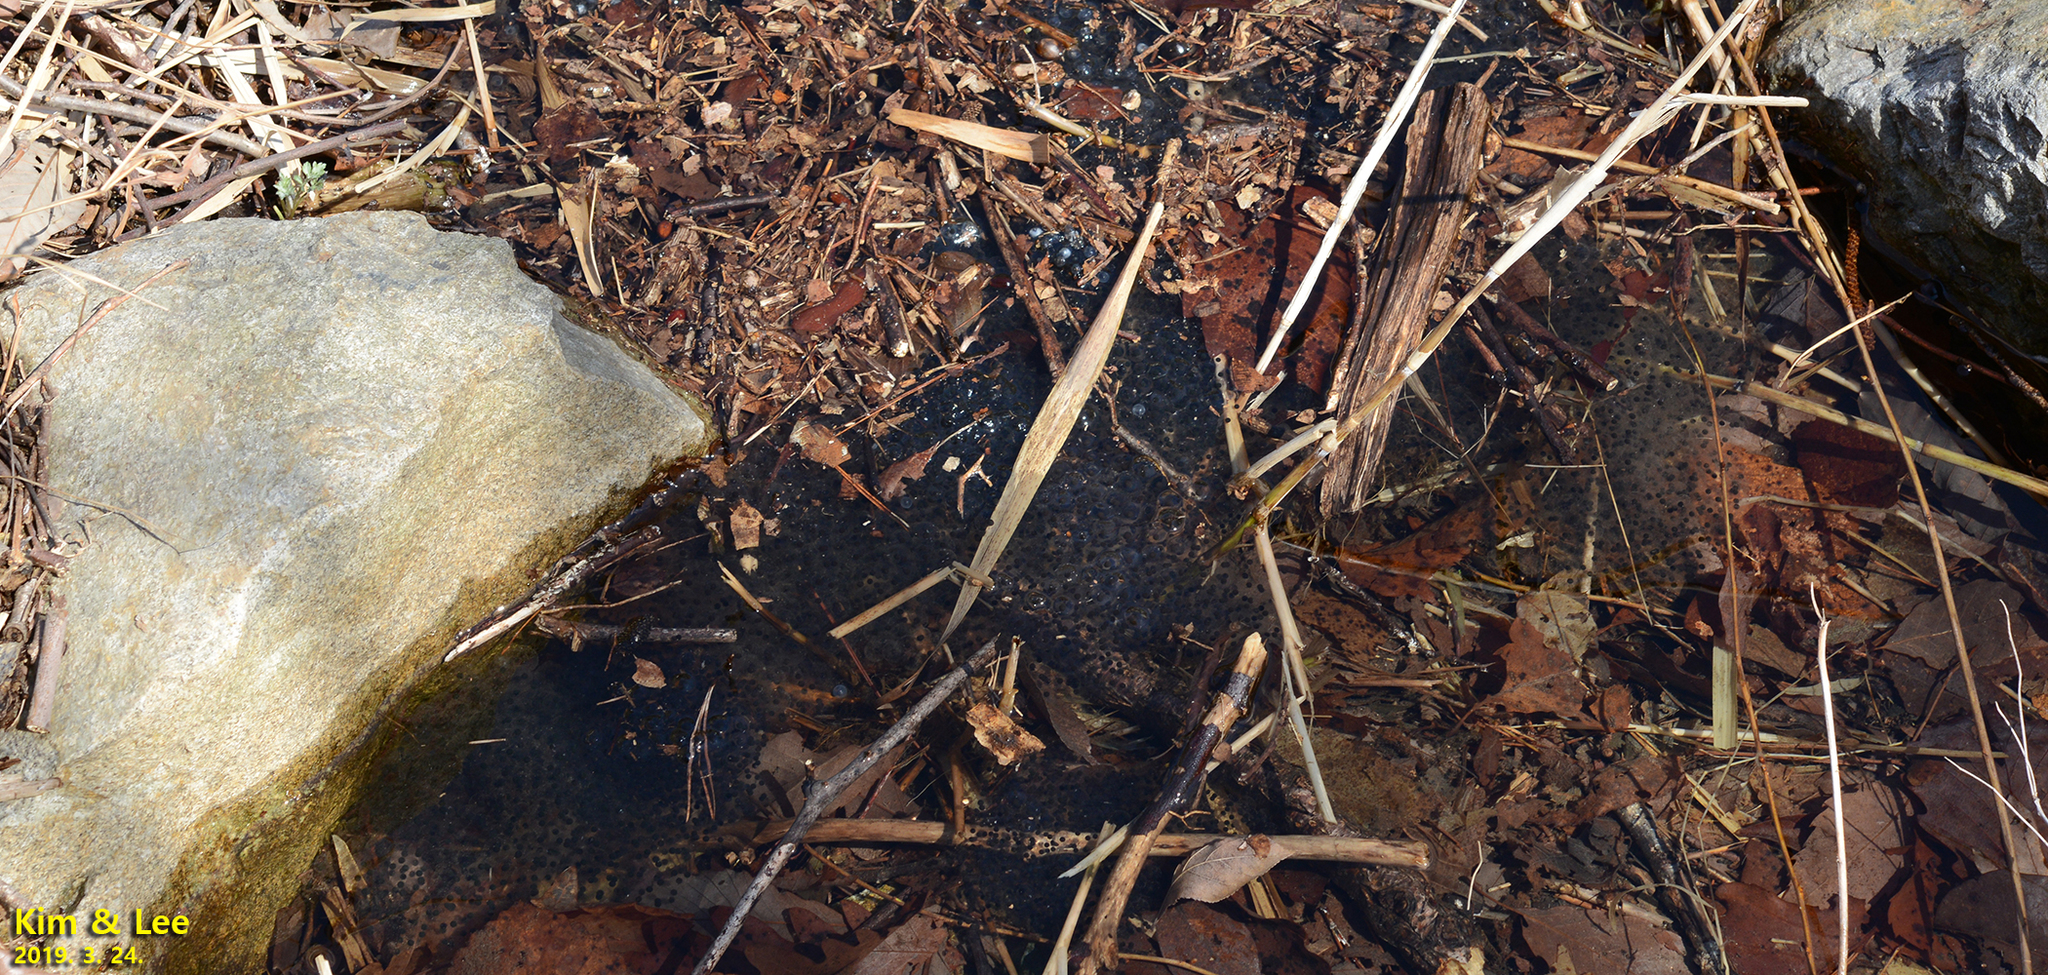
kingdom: Animalia
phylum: Chordata
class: Amphibia
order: Anura
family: Ranidae
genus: Rana
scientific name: Rana huanrenensis
